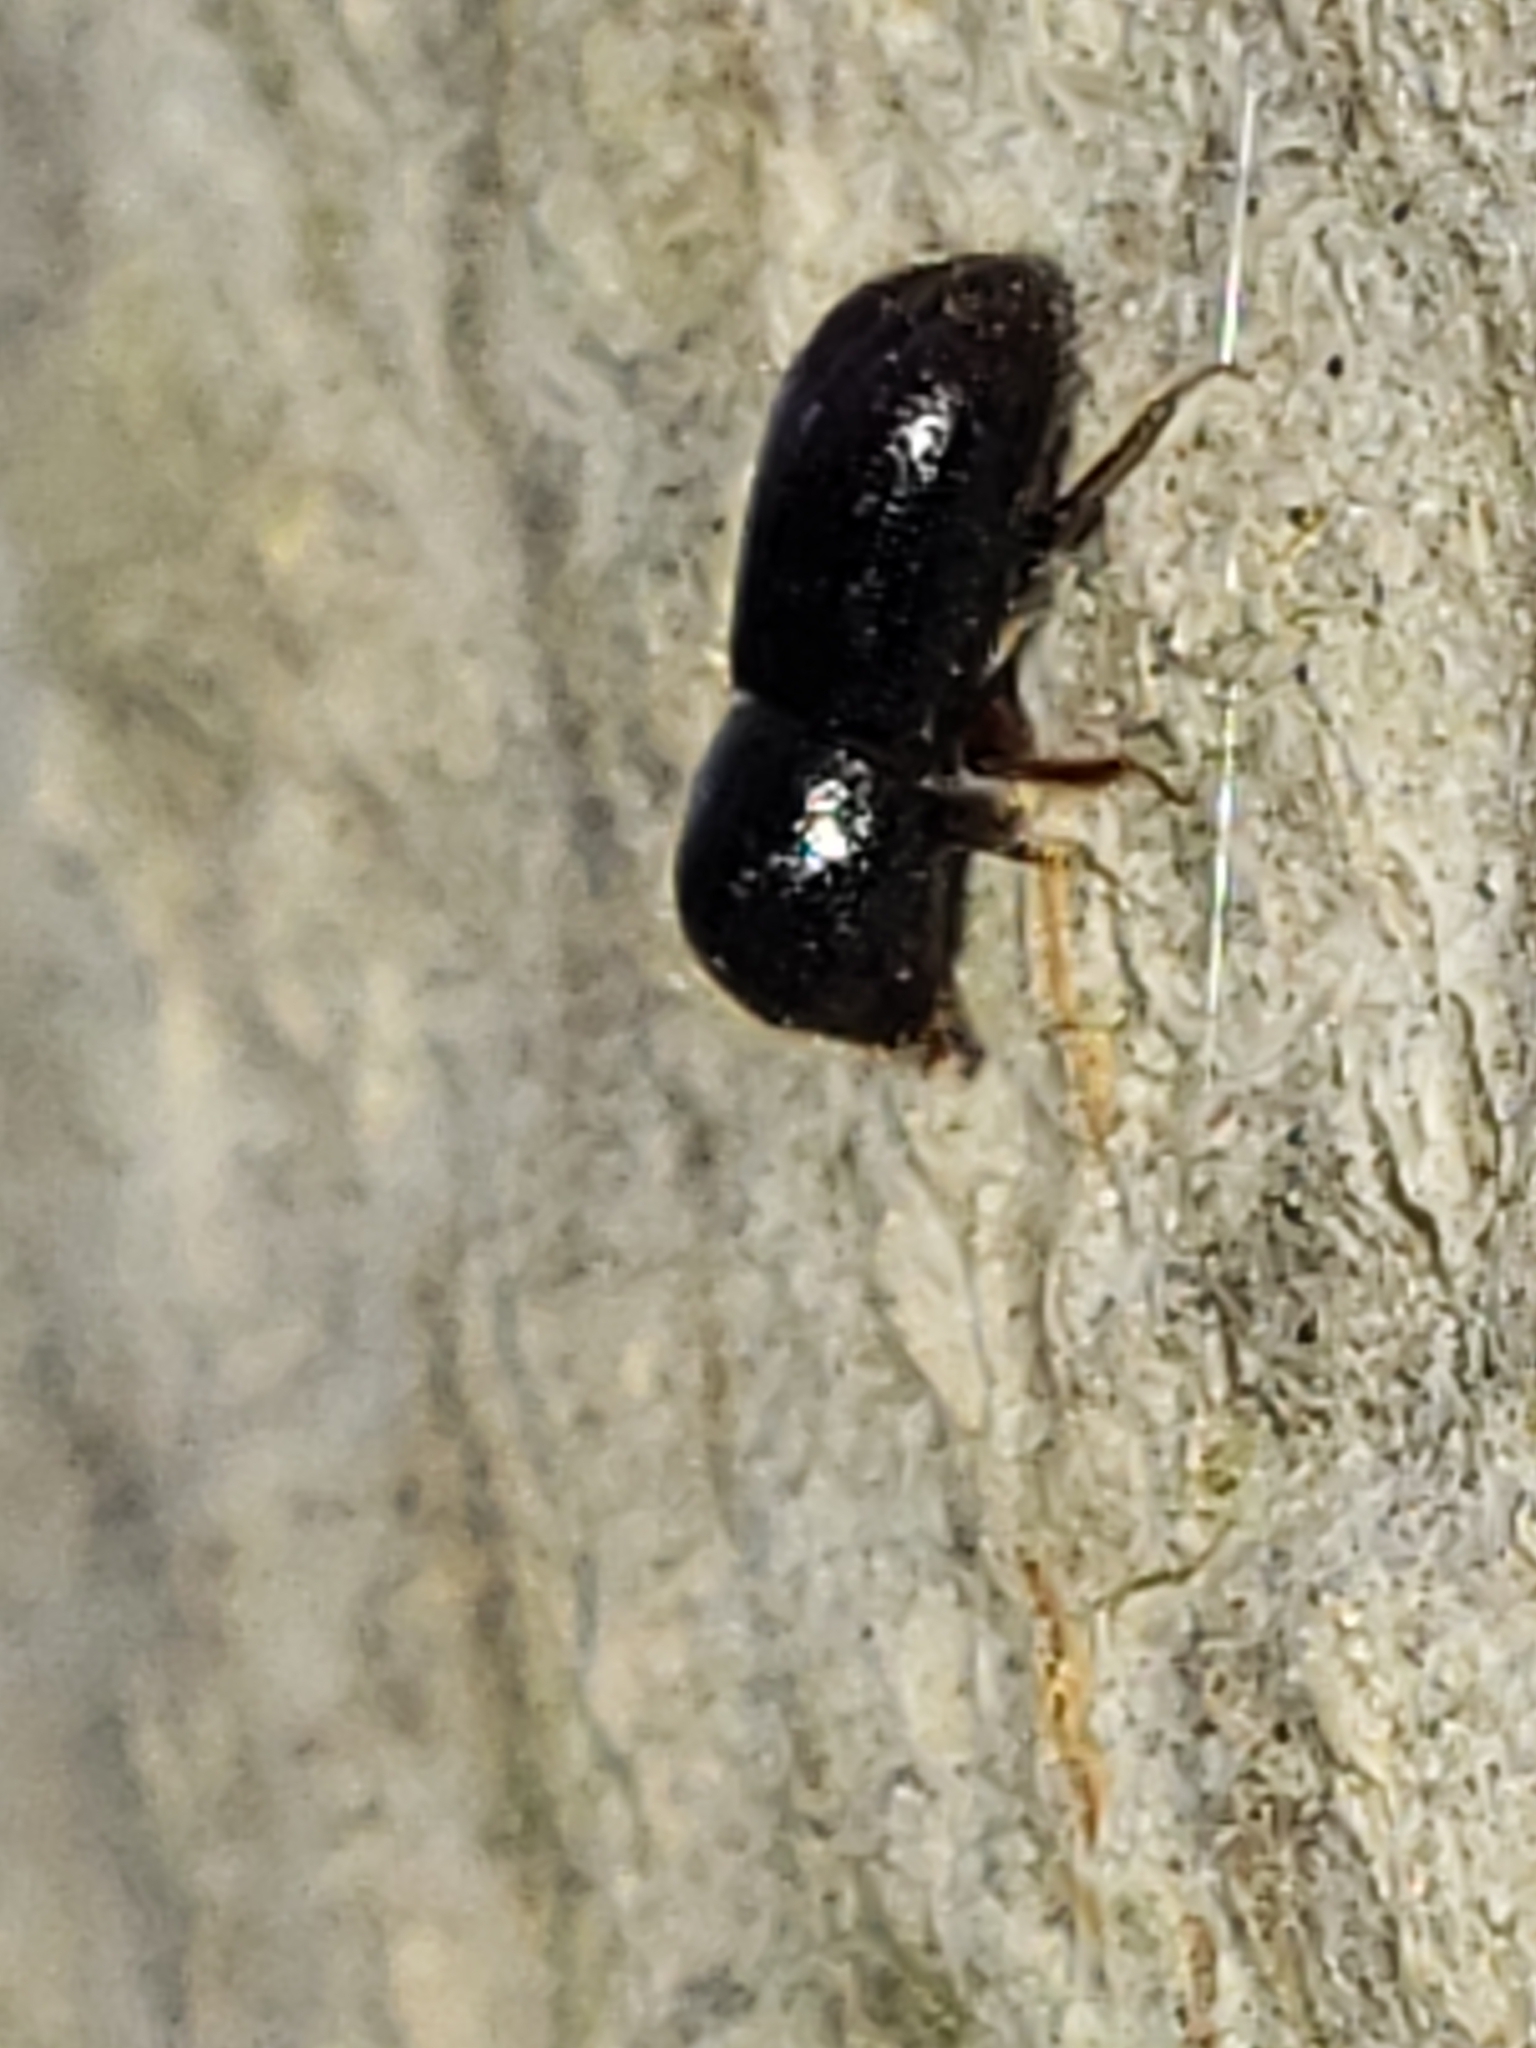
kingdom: Animalia
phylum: Arthropoda
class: Insecta
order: Coleoptera
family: Curculionidae
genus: Xyleborus
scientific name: Xyleborus atratus
